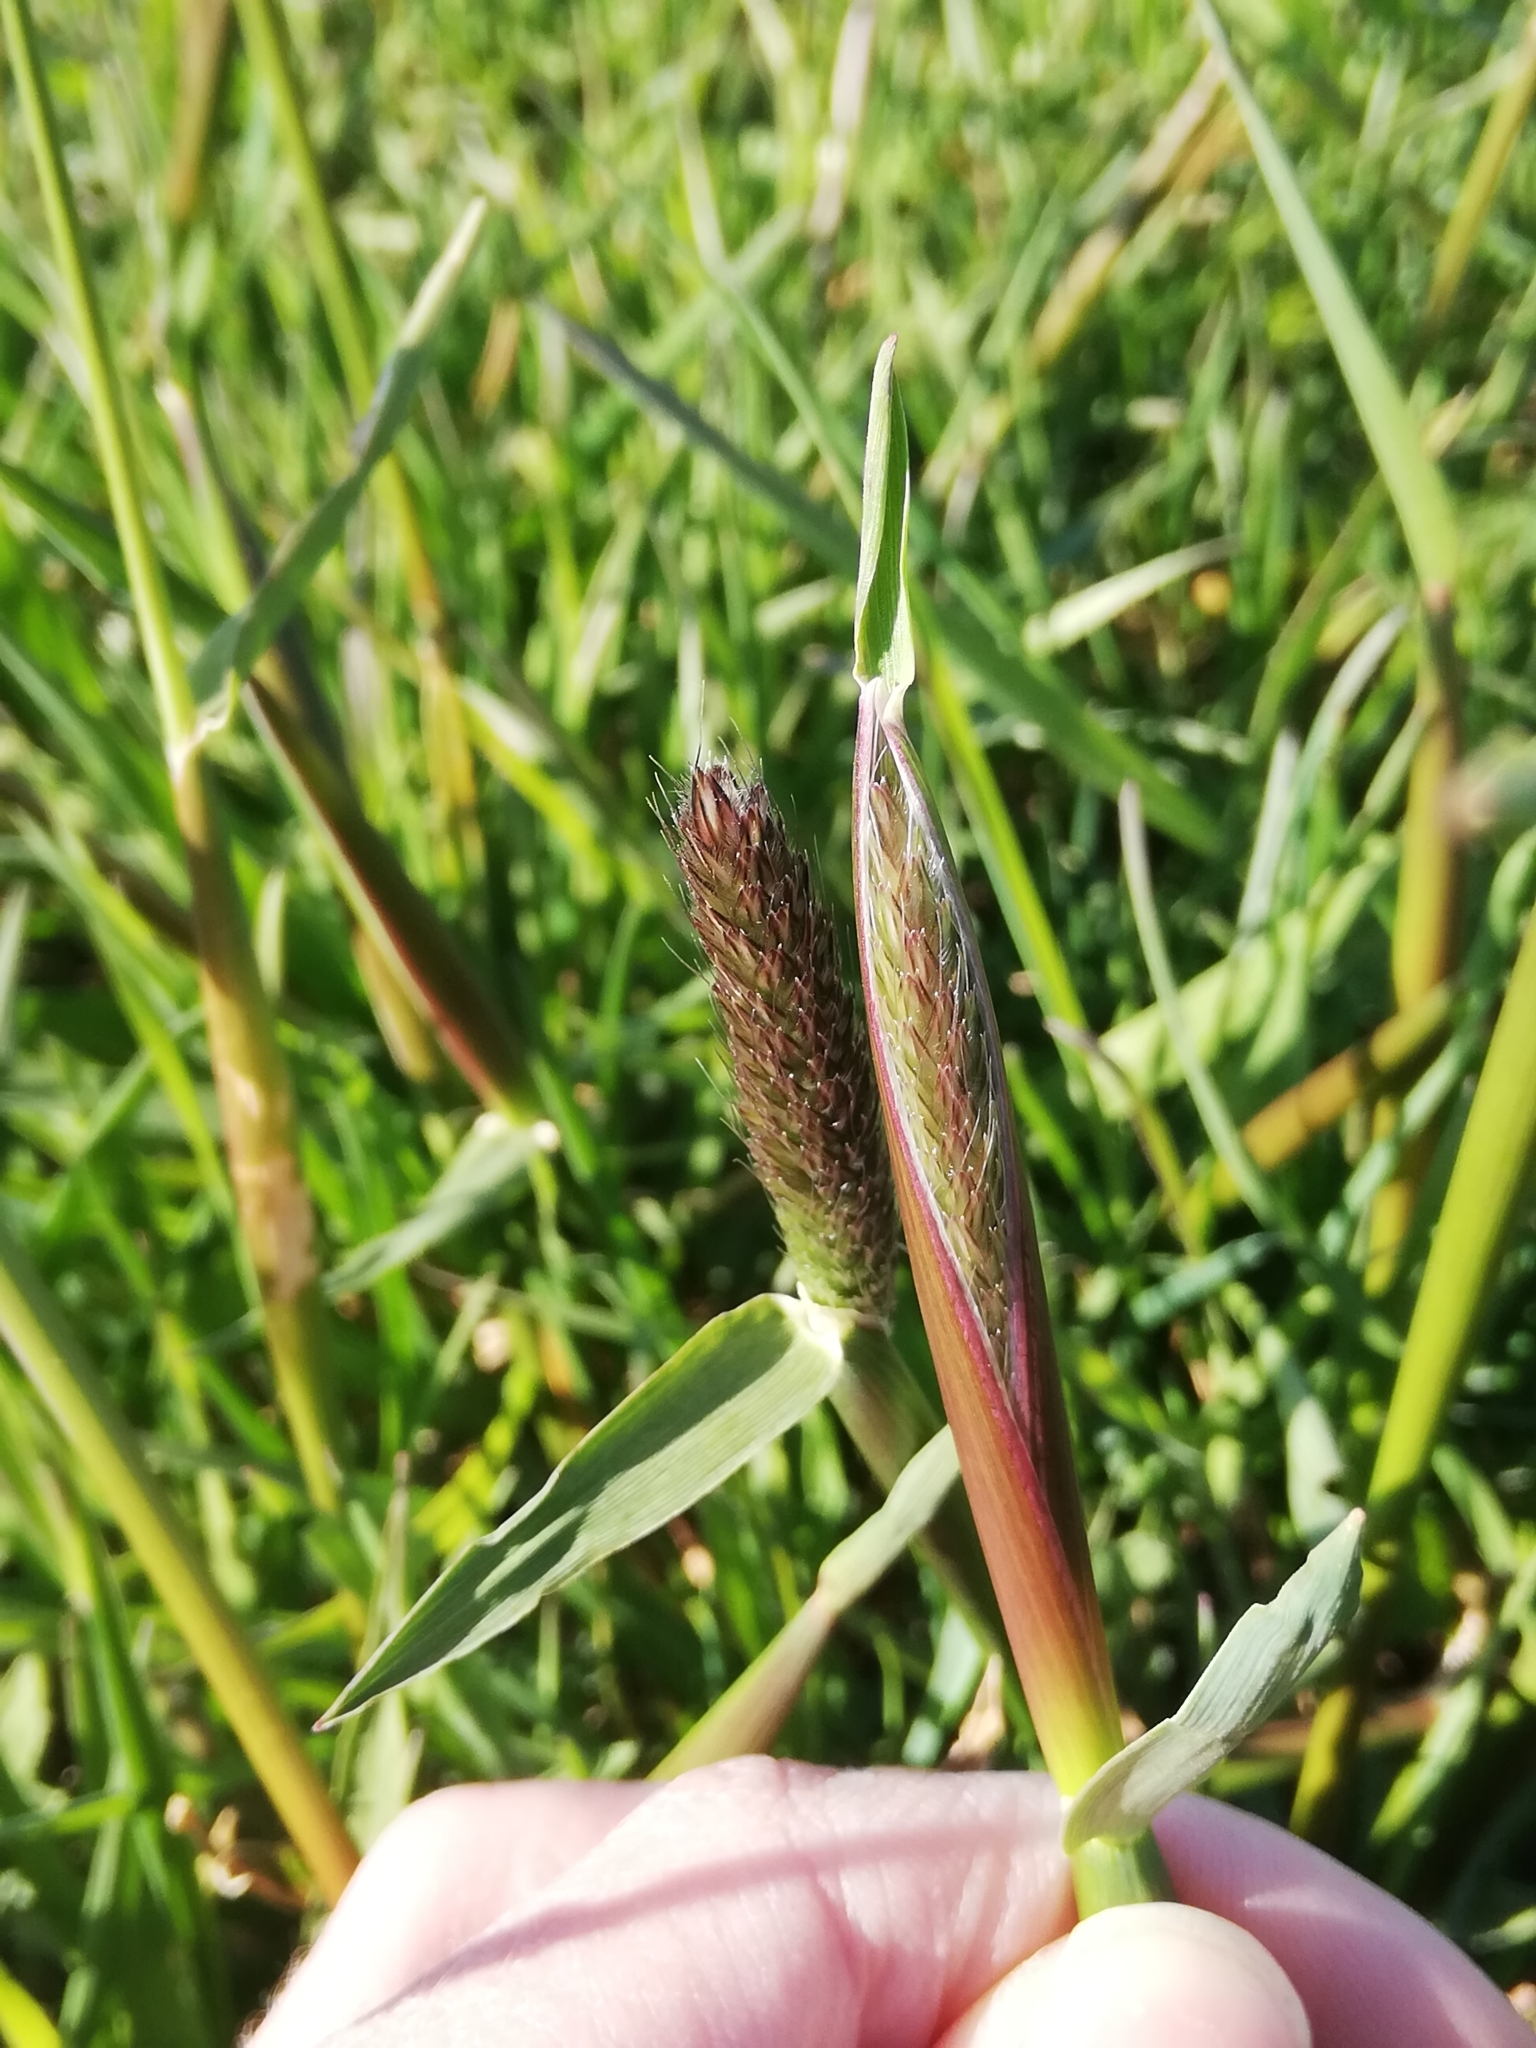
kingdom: Plantae
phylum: Tracheophyta
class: Liliopsida
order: Poales
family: Poaceae
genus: Alopecurus
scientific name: Alopecurus pratensis
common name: Meadow foxtail
